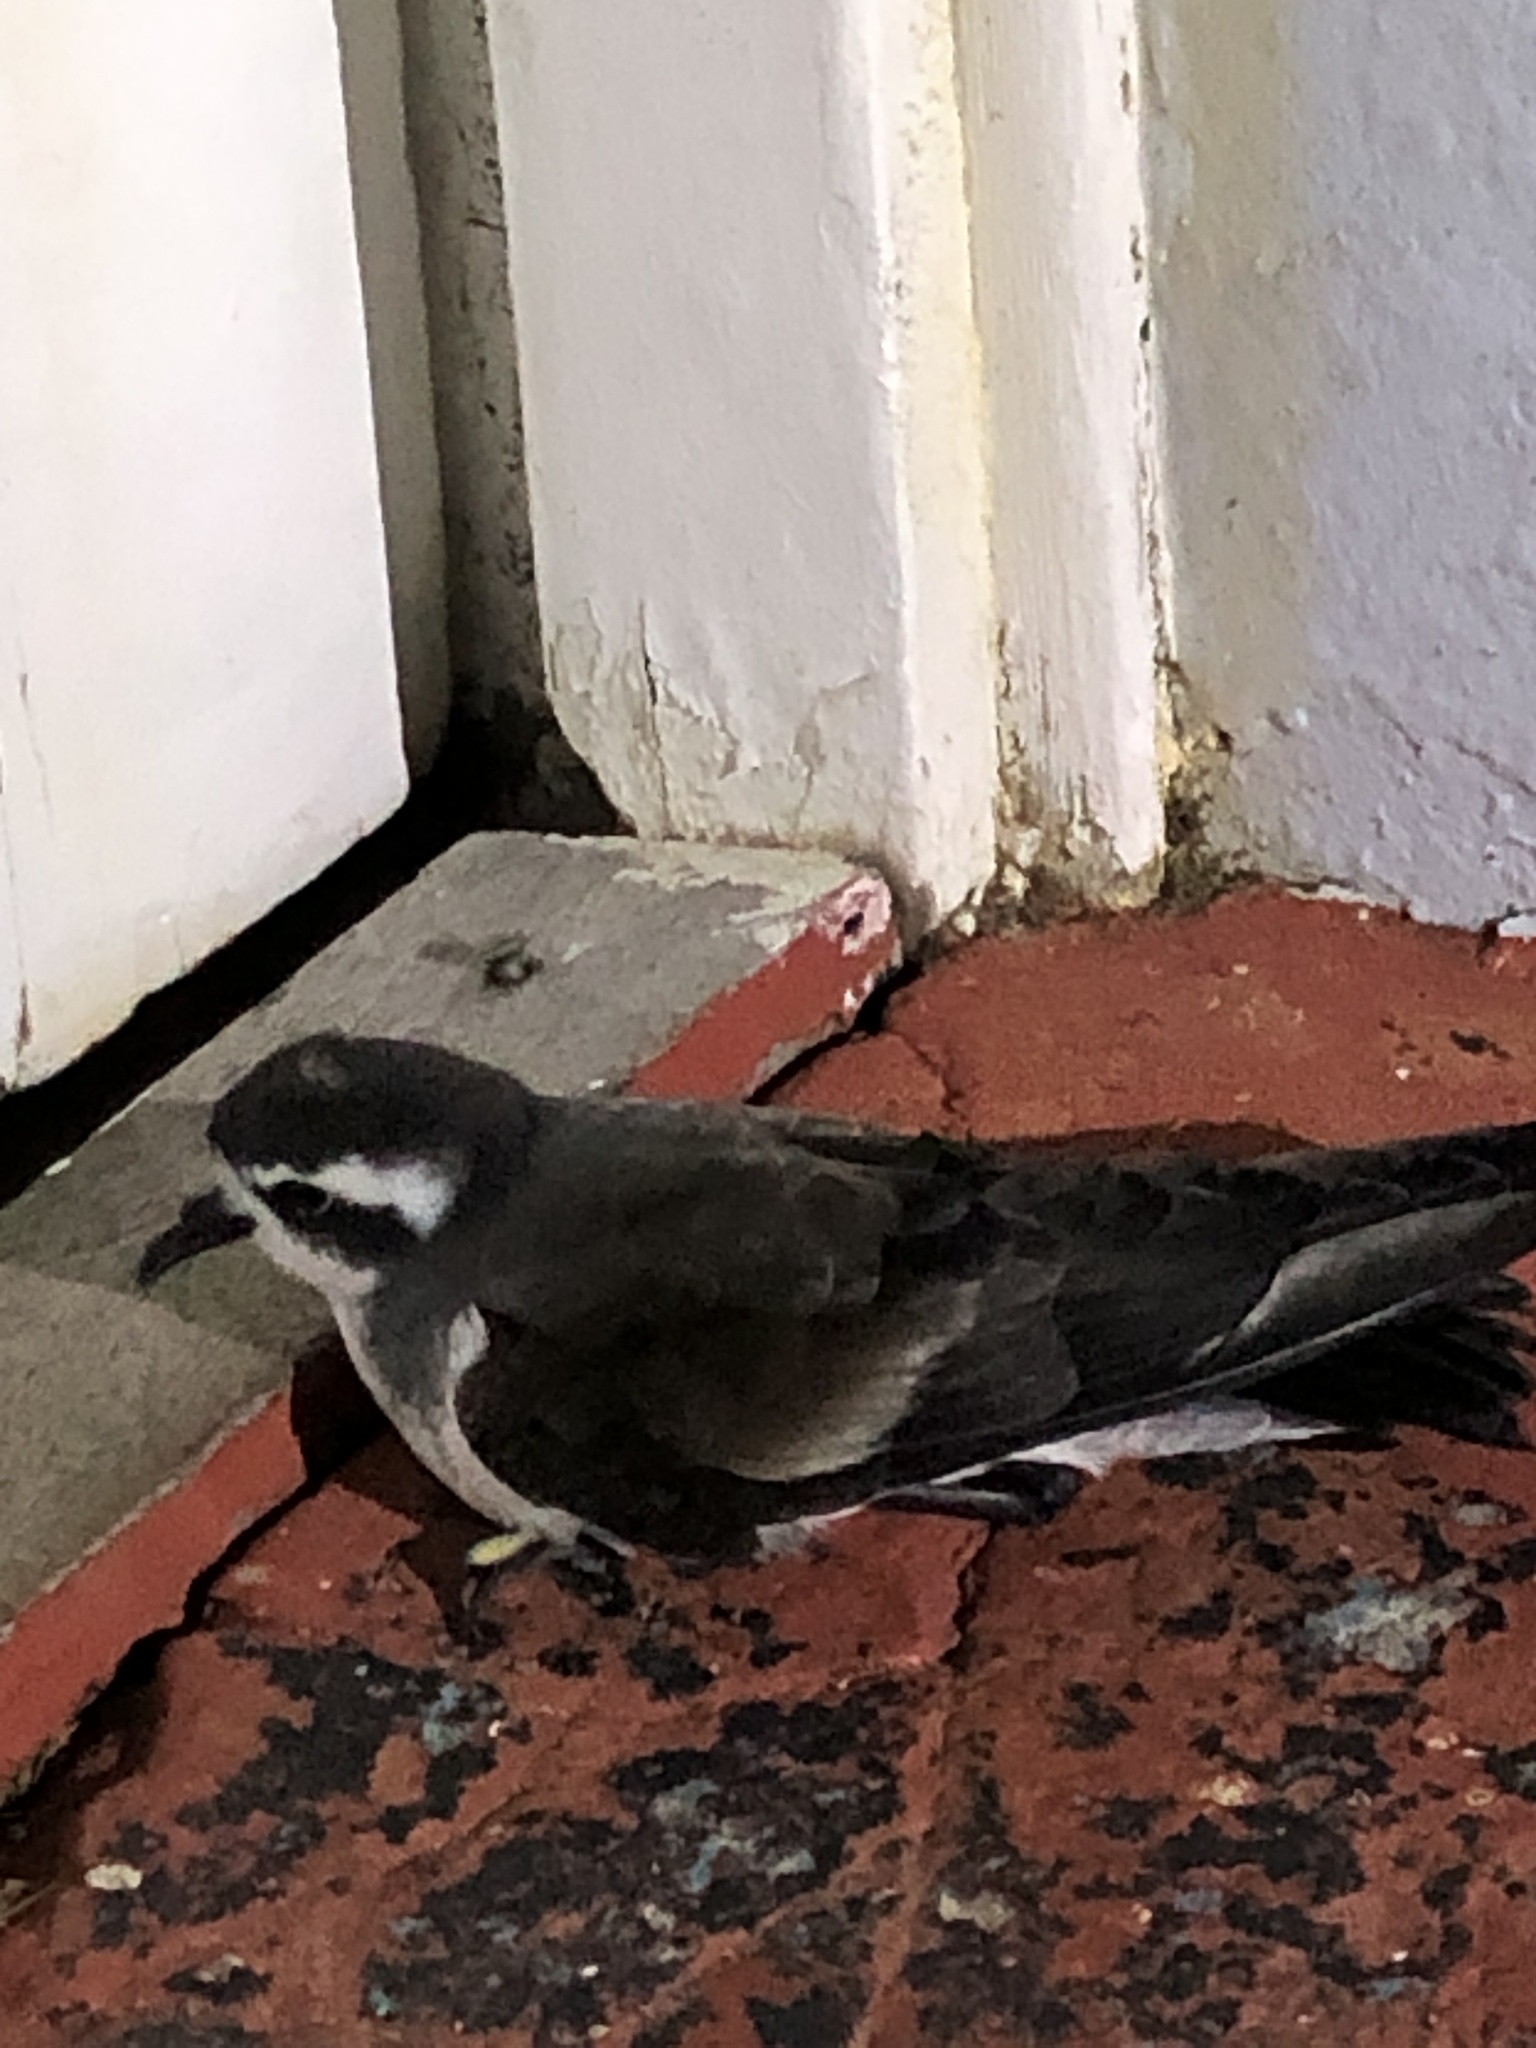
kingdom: Animalia
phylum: Chordata
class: Aves
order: Procellariiformes
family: Hydrobatidae
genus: Pelagodroma
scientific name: Pelagodroma marina
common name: White-faced storm-petrel
